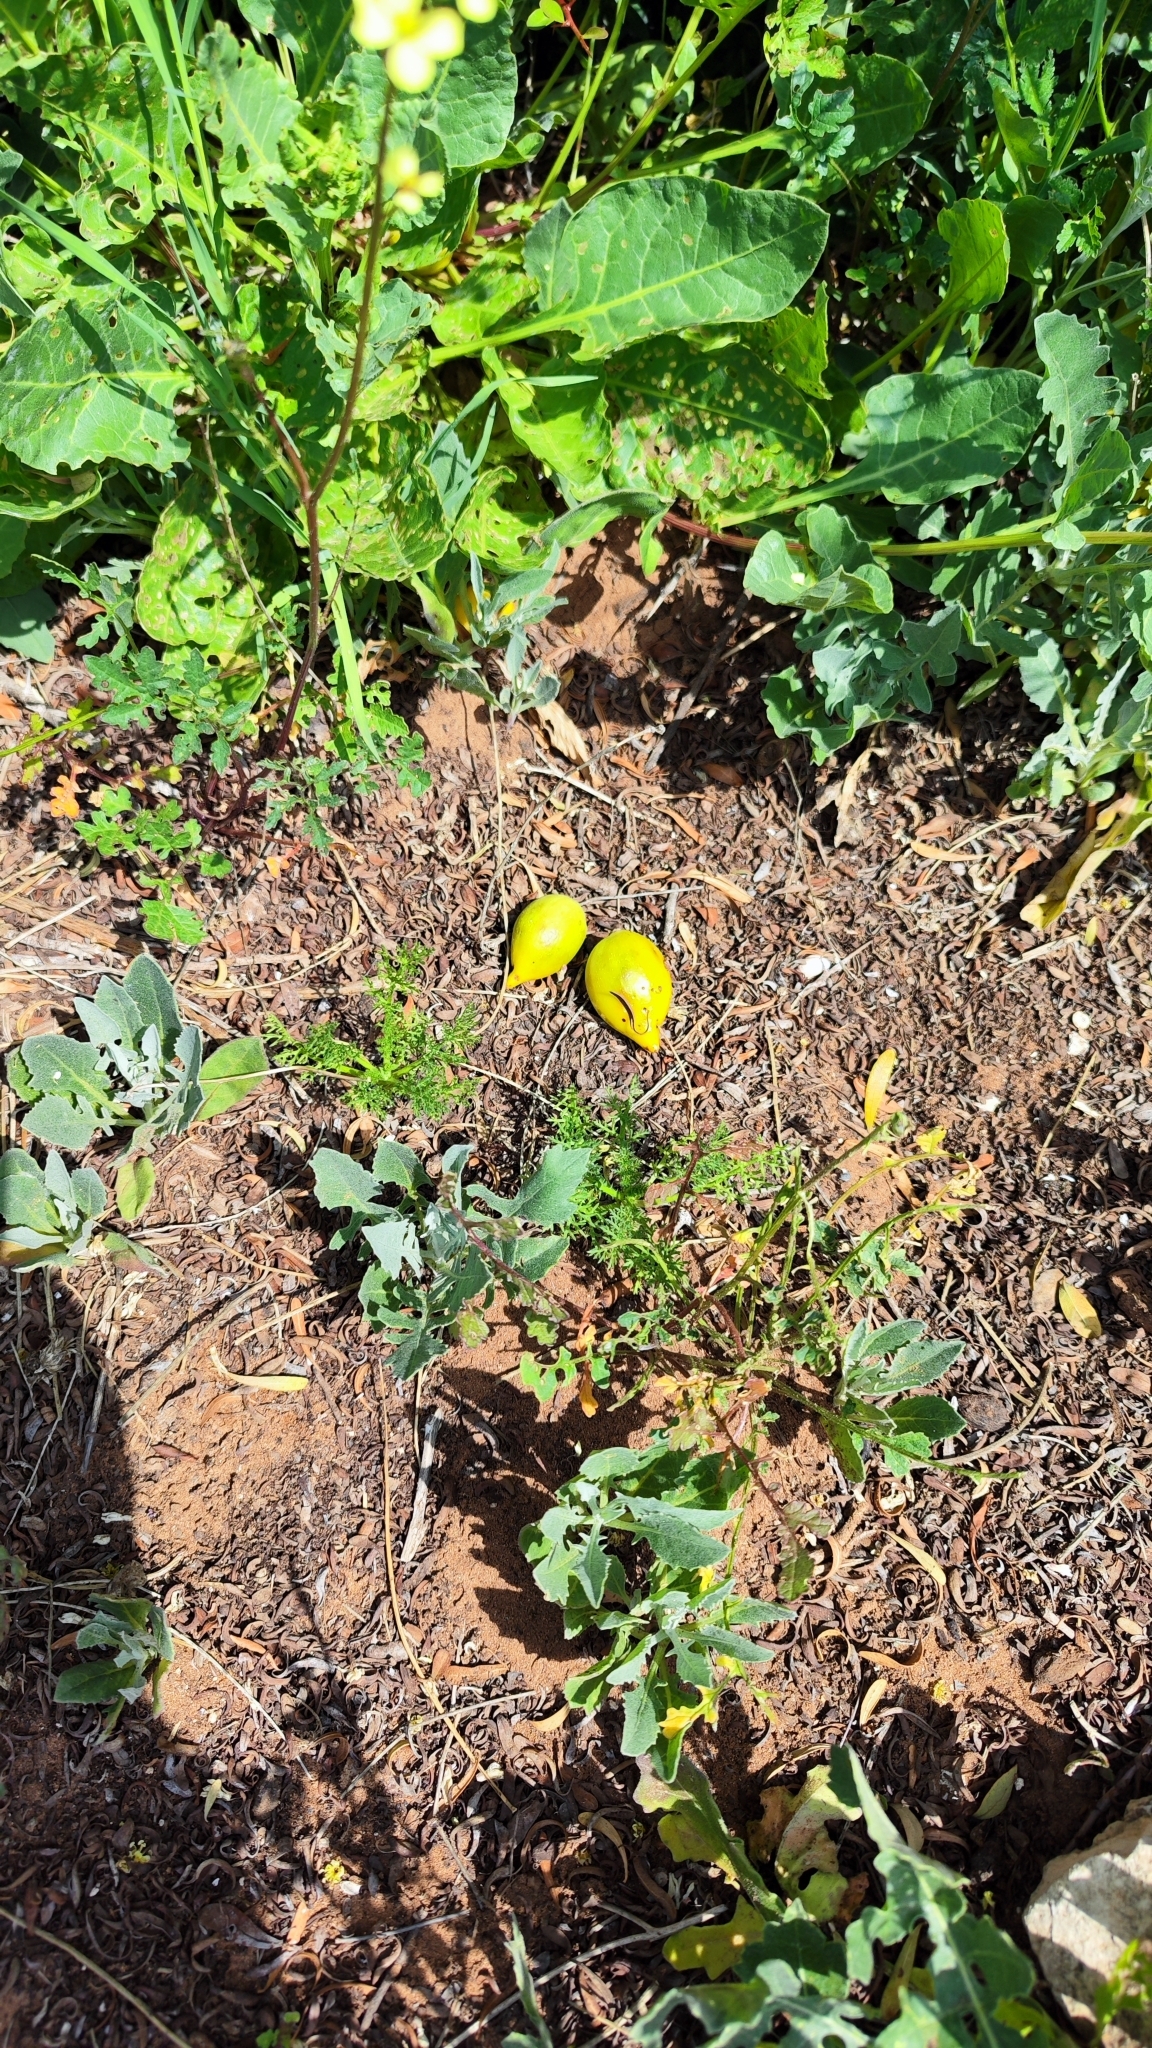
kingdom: Plantae
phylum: Tracheophyta
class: Magnoliopsida
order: Ericales
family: Sapotaceae
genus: Sideroxylon
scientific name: Sideroxylon spinosum
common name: Argan
